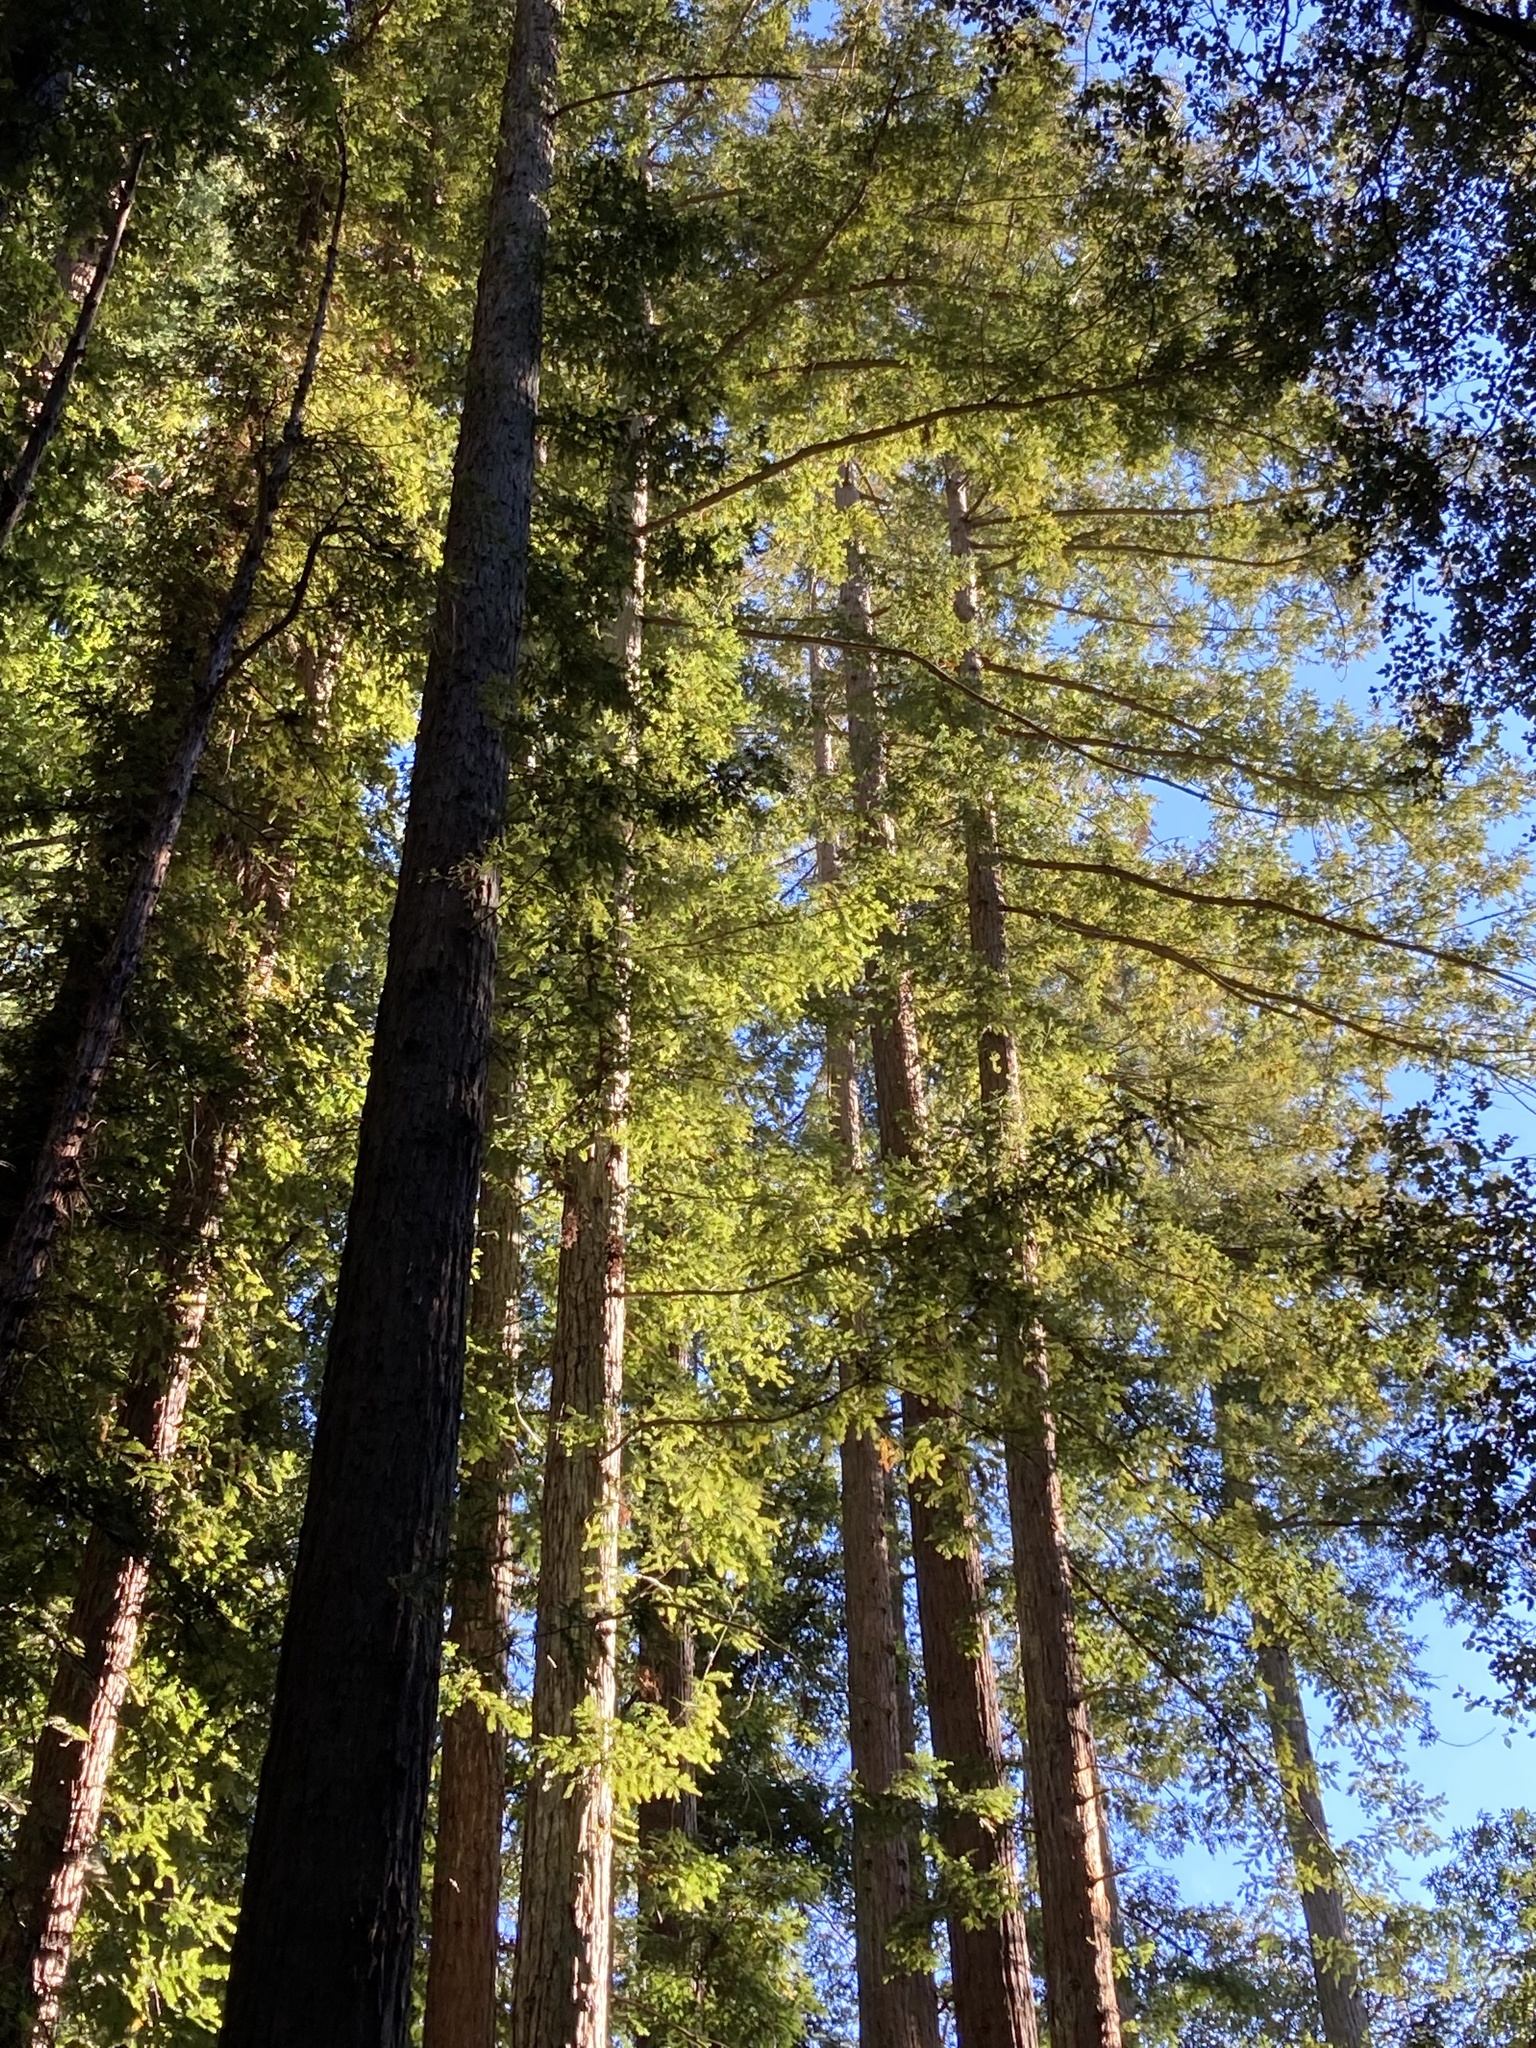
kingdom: Plantae
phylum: Tracheophyta
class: Pinopsida
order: Pinales
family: Cupressaceae
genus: Sequoia
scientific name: Sequoia sempervirens
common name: Coast redwood
